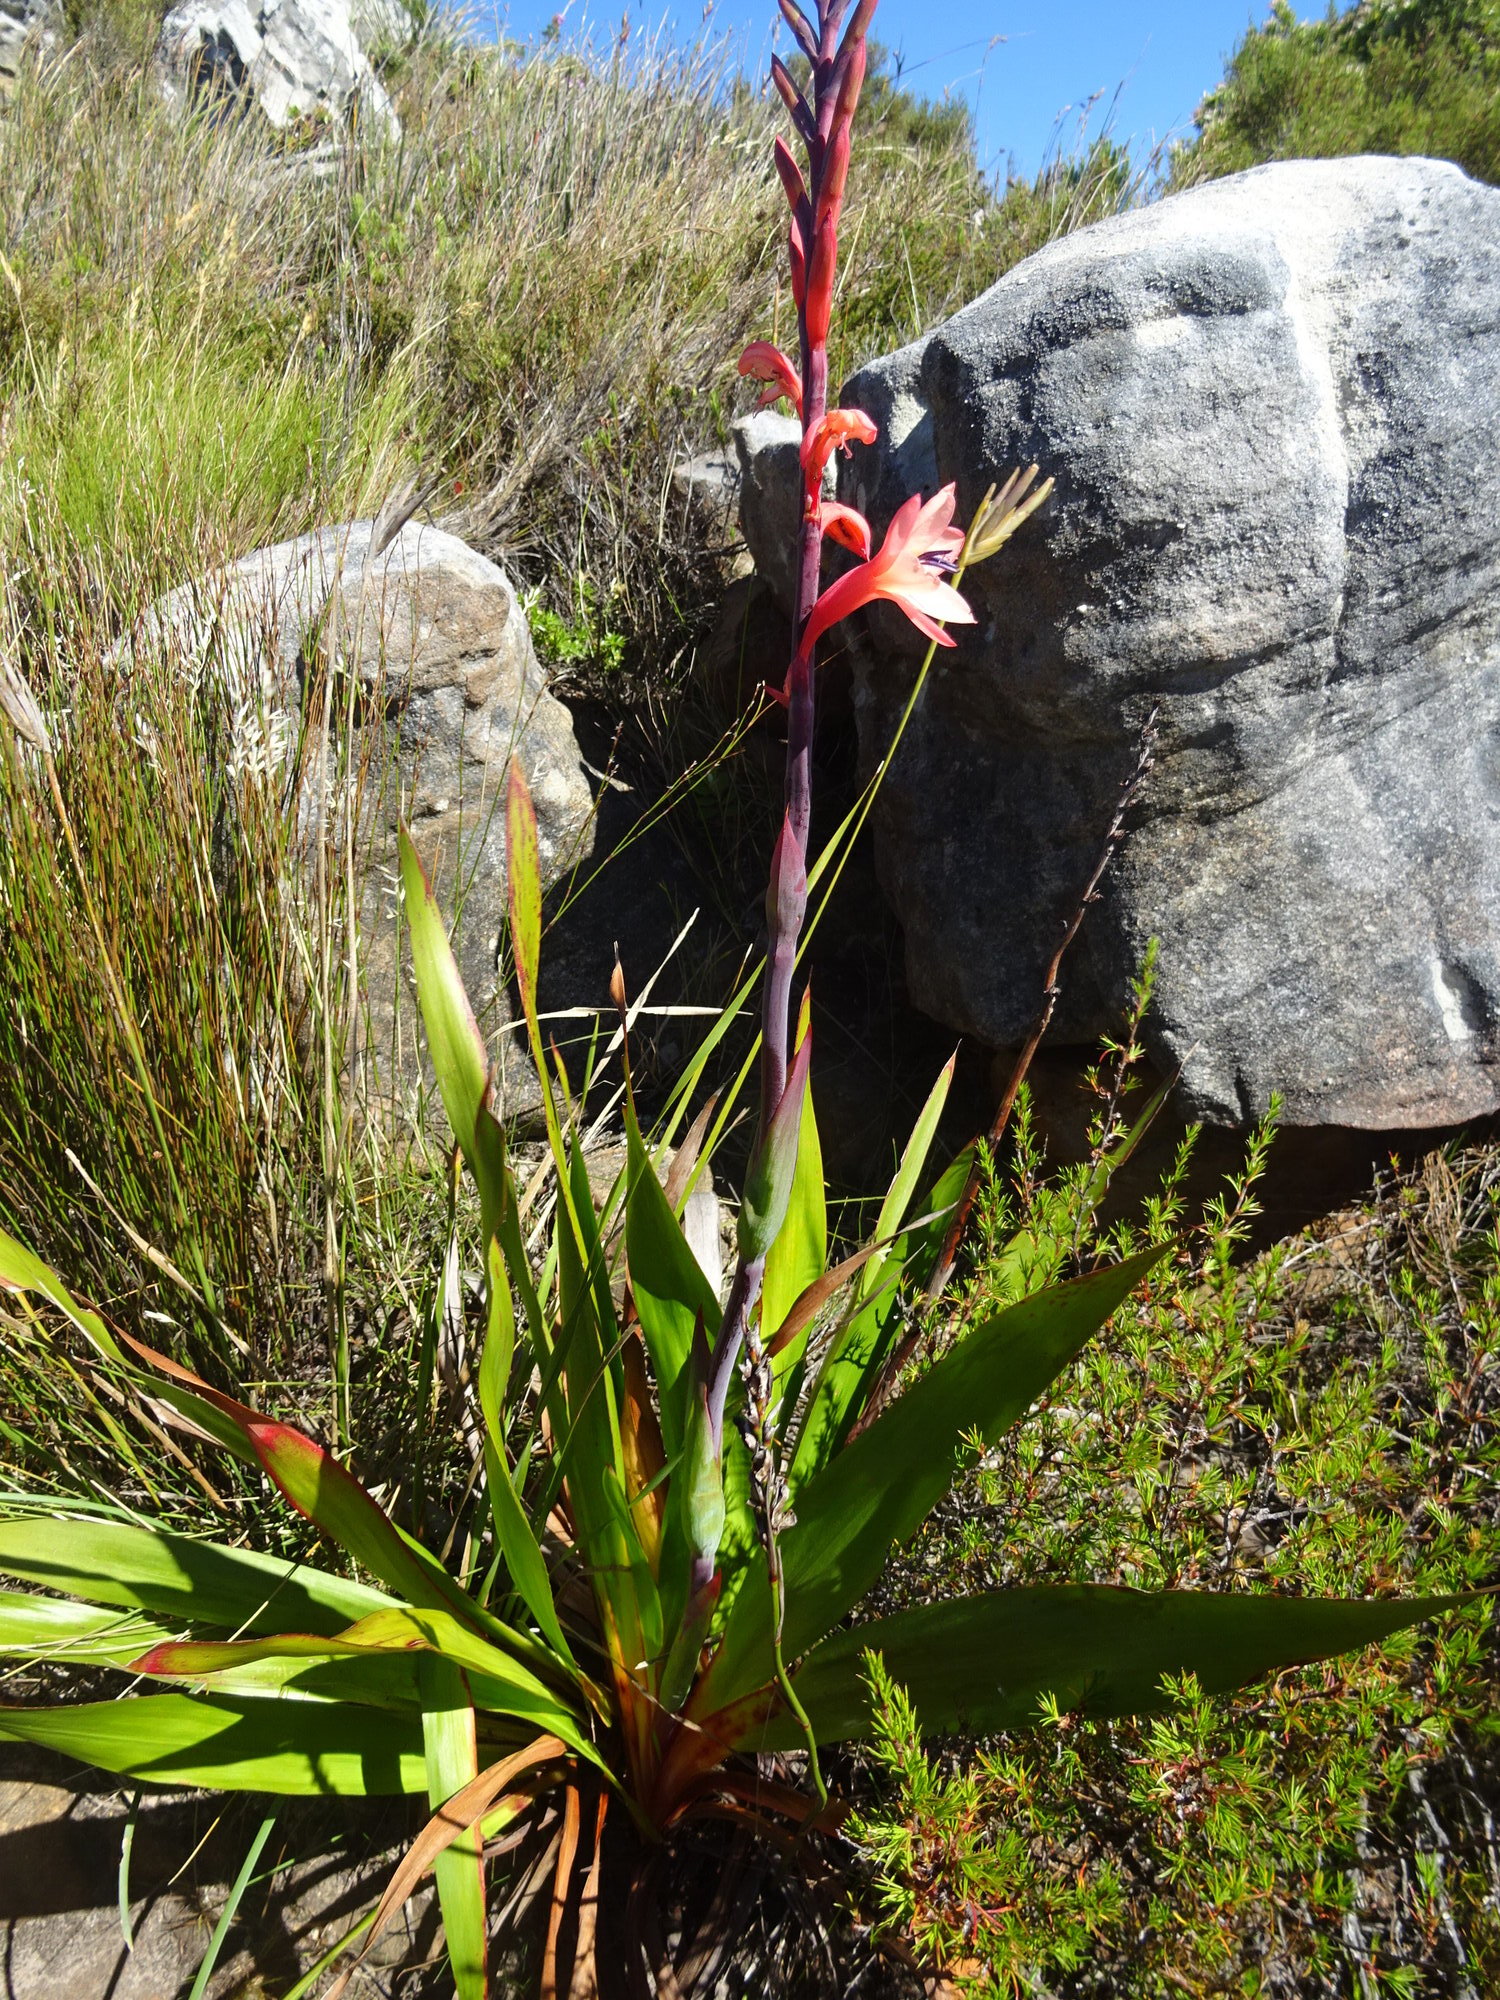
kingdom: Plantae
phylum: Tracheophyta
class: Liliopsida
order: Asparagales
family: Iridaceae
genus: Watsonia
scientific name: Watsonia meriana
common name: Bulbil bugle-lily
